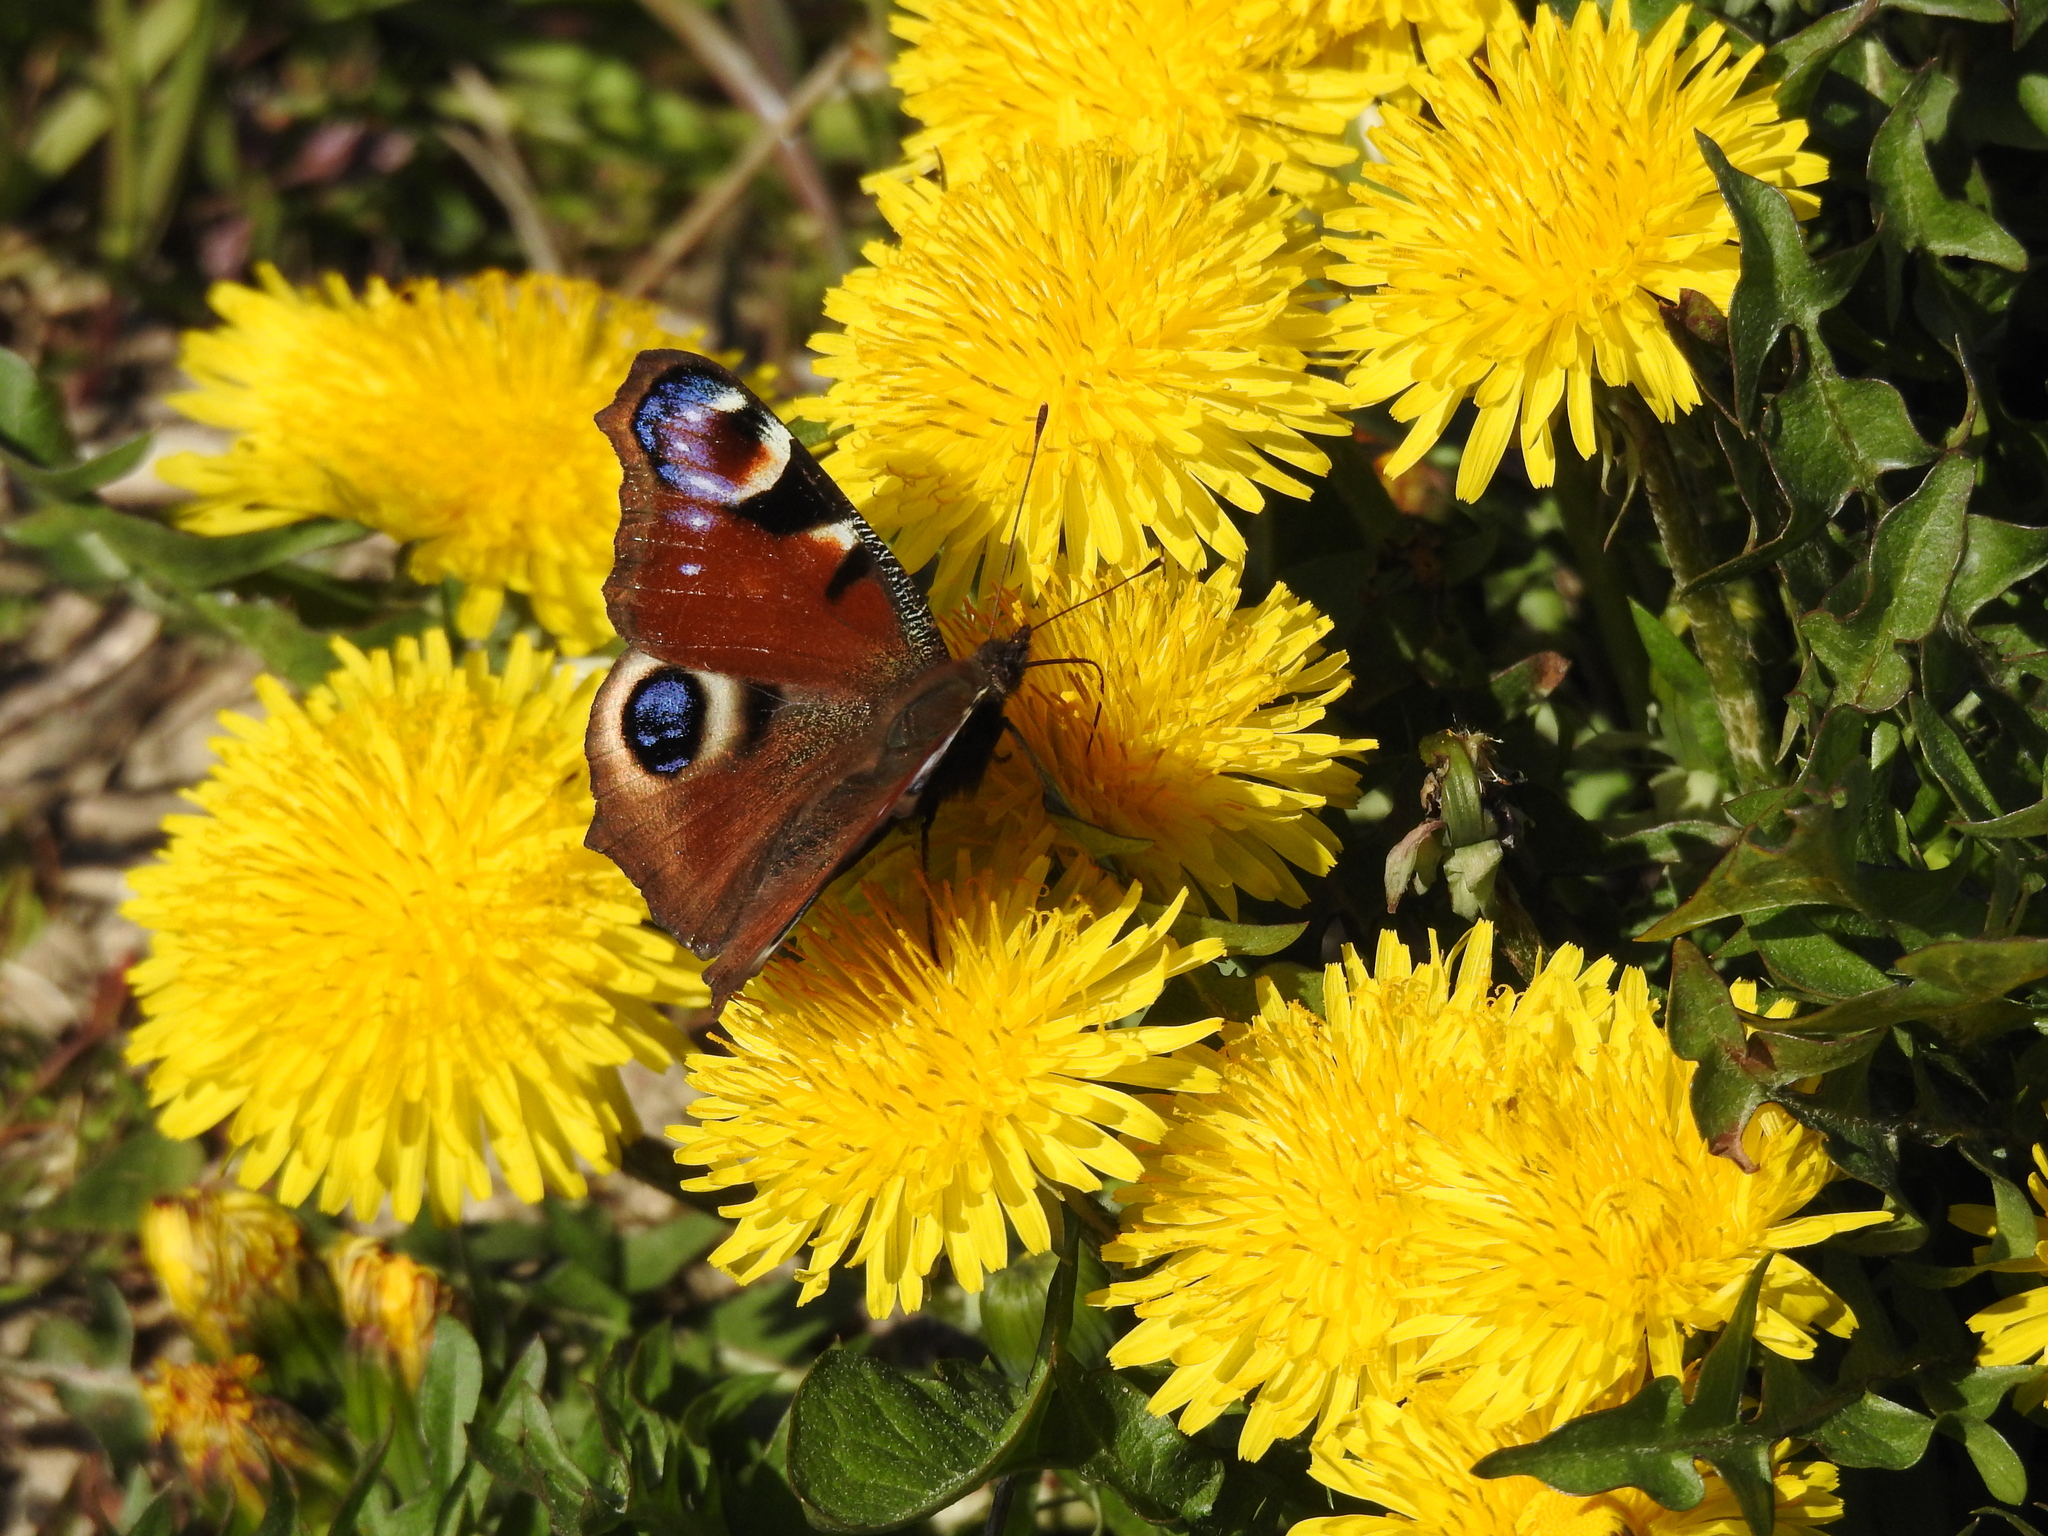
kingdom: Animalia
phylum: Arthropoda
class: Insecta
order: Lepidoptera
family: Nymphalidae
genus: Aglais
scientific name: Aglais io
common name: Peacock
